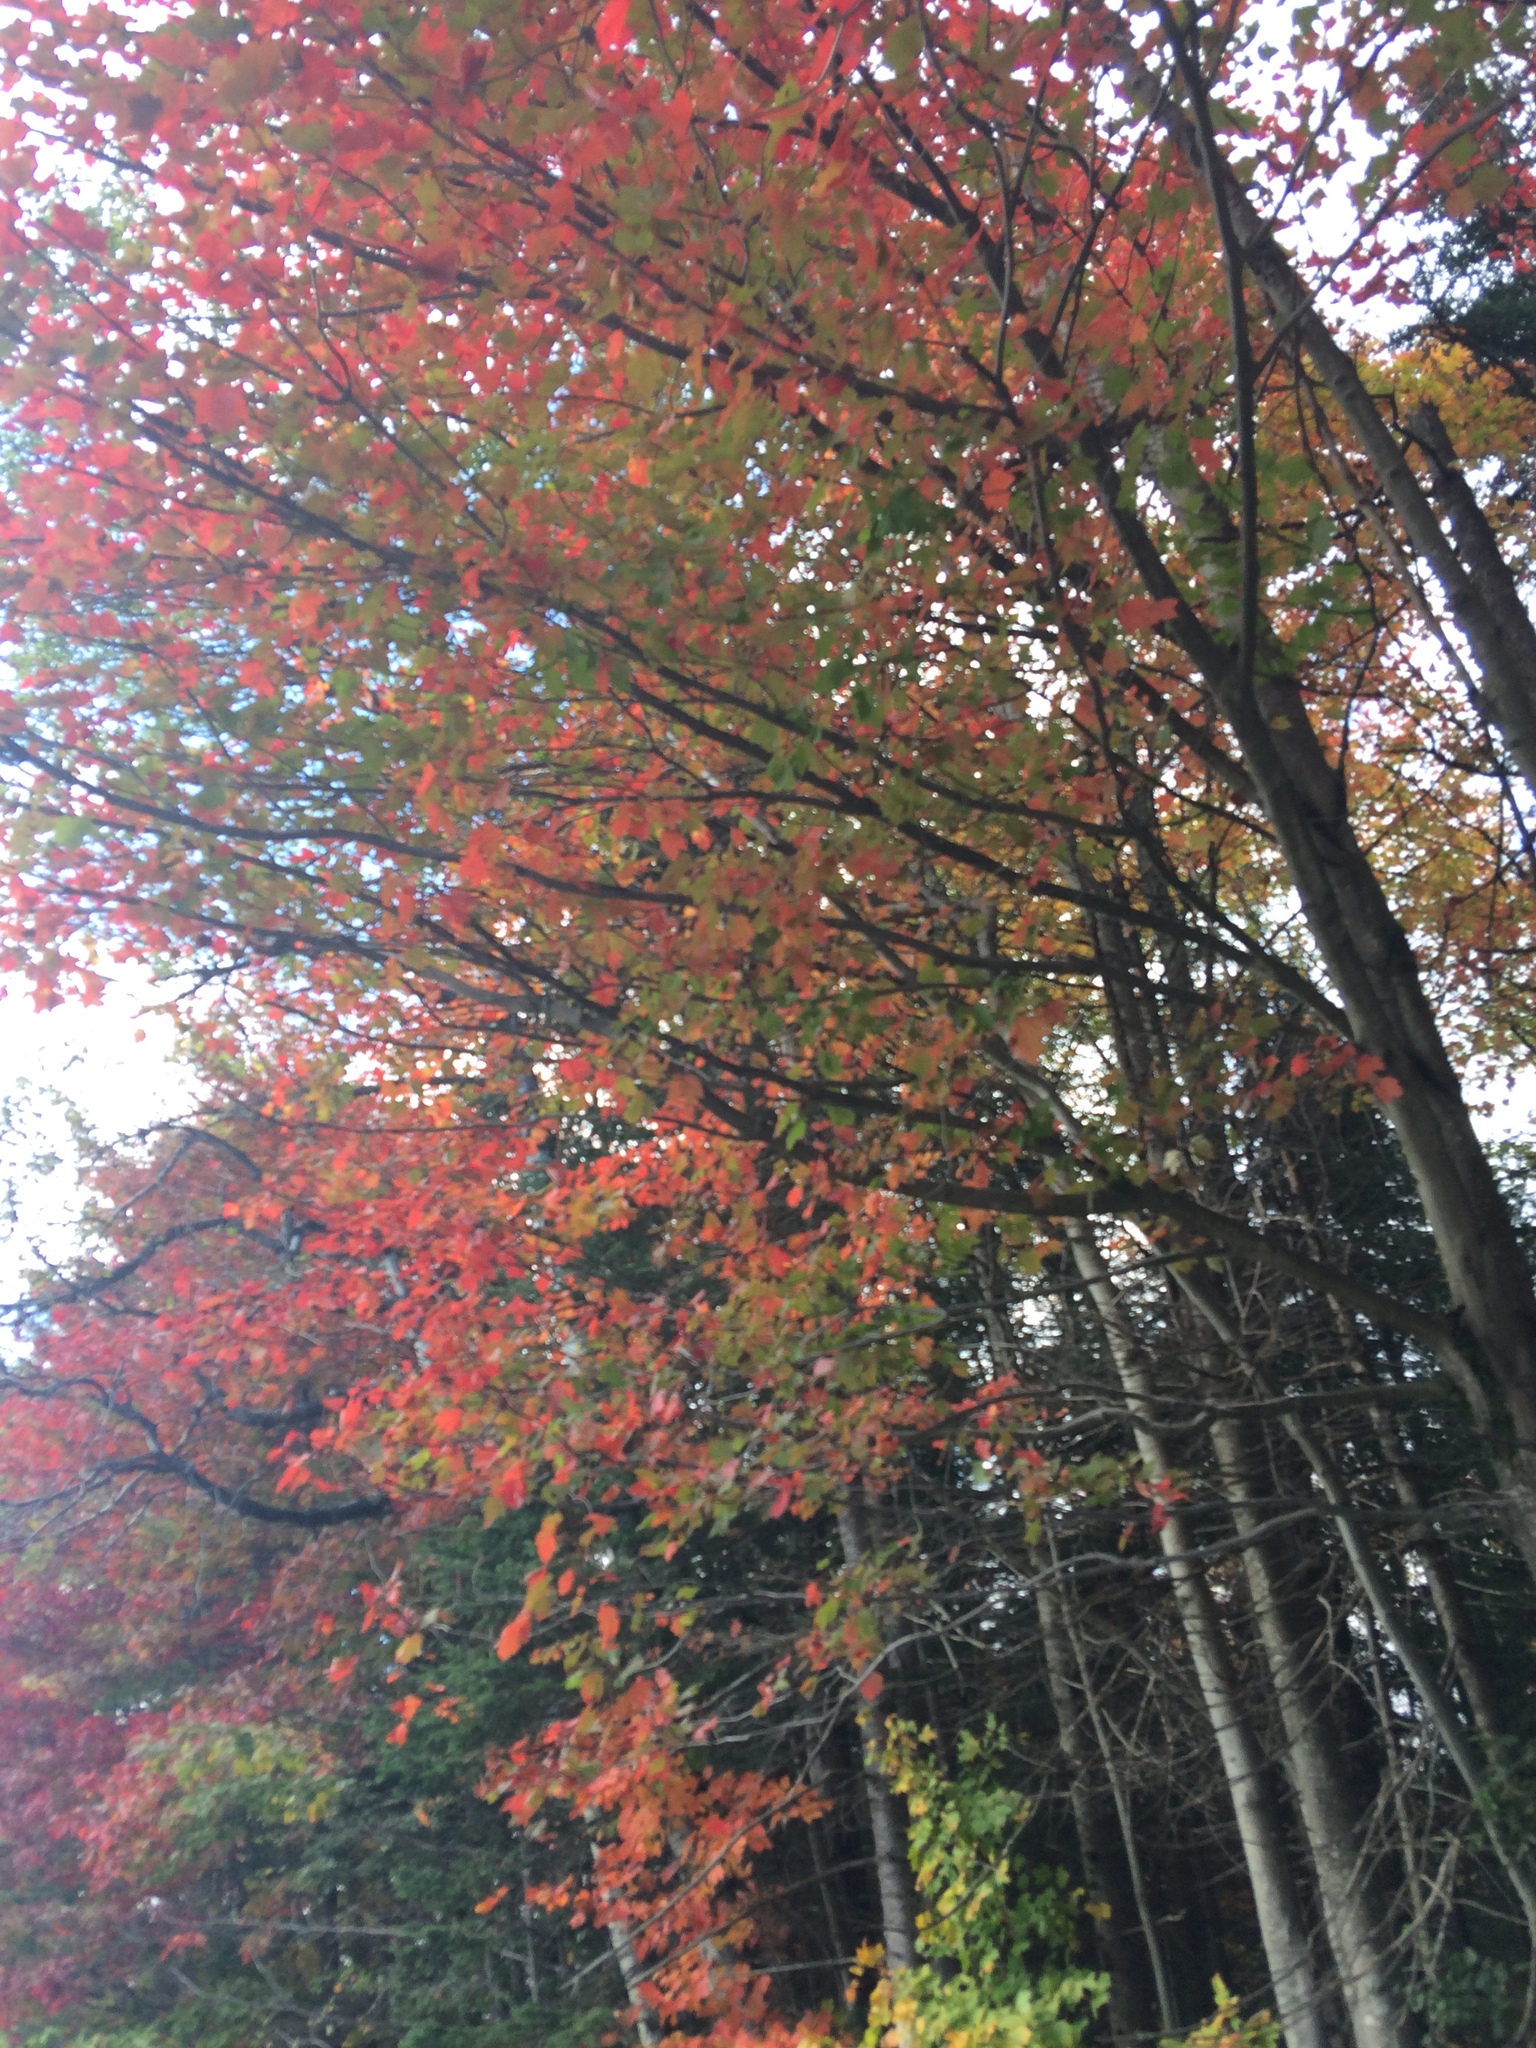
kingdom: Plantae
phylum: Tracheophyta
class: Magnoliopsida
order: Sapindales
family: Sapindaceae
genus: Acer
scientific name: Acer rubrum
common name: Red maple
